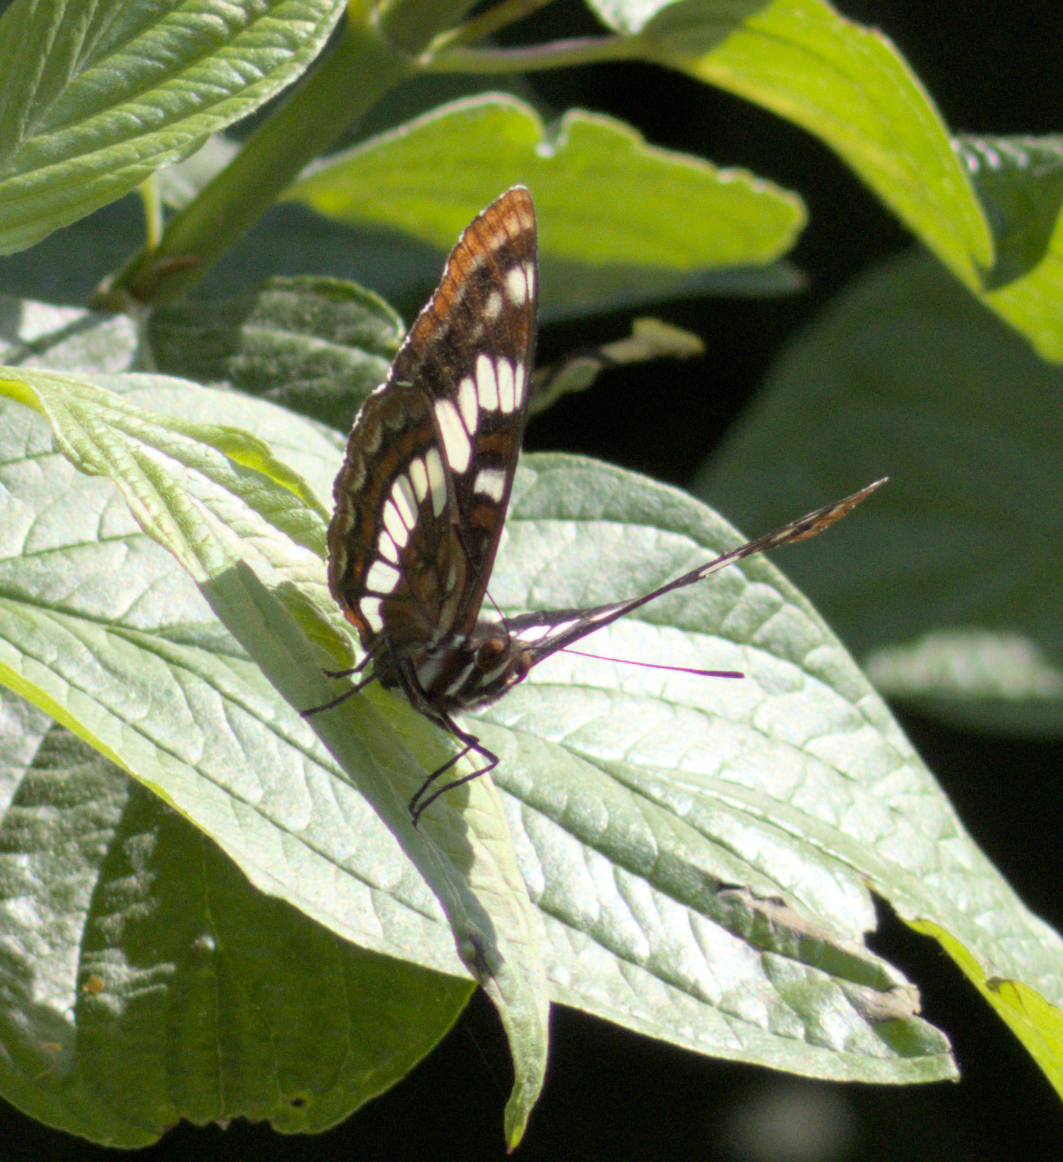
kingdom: Animalia
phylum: Arthropoda
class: Insecta
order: Lepidoptera
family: Nymphalidae
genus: Limenitis
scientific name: Limenitis lorquini
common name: Lorquin's admiral
